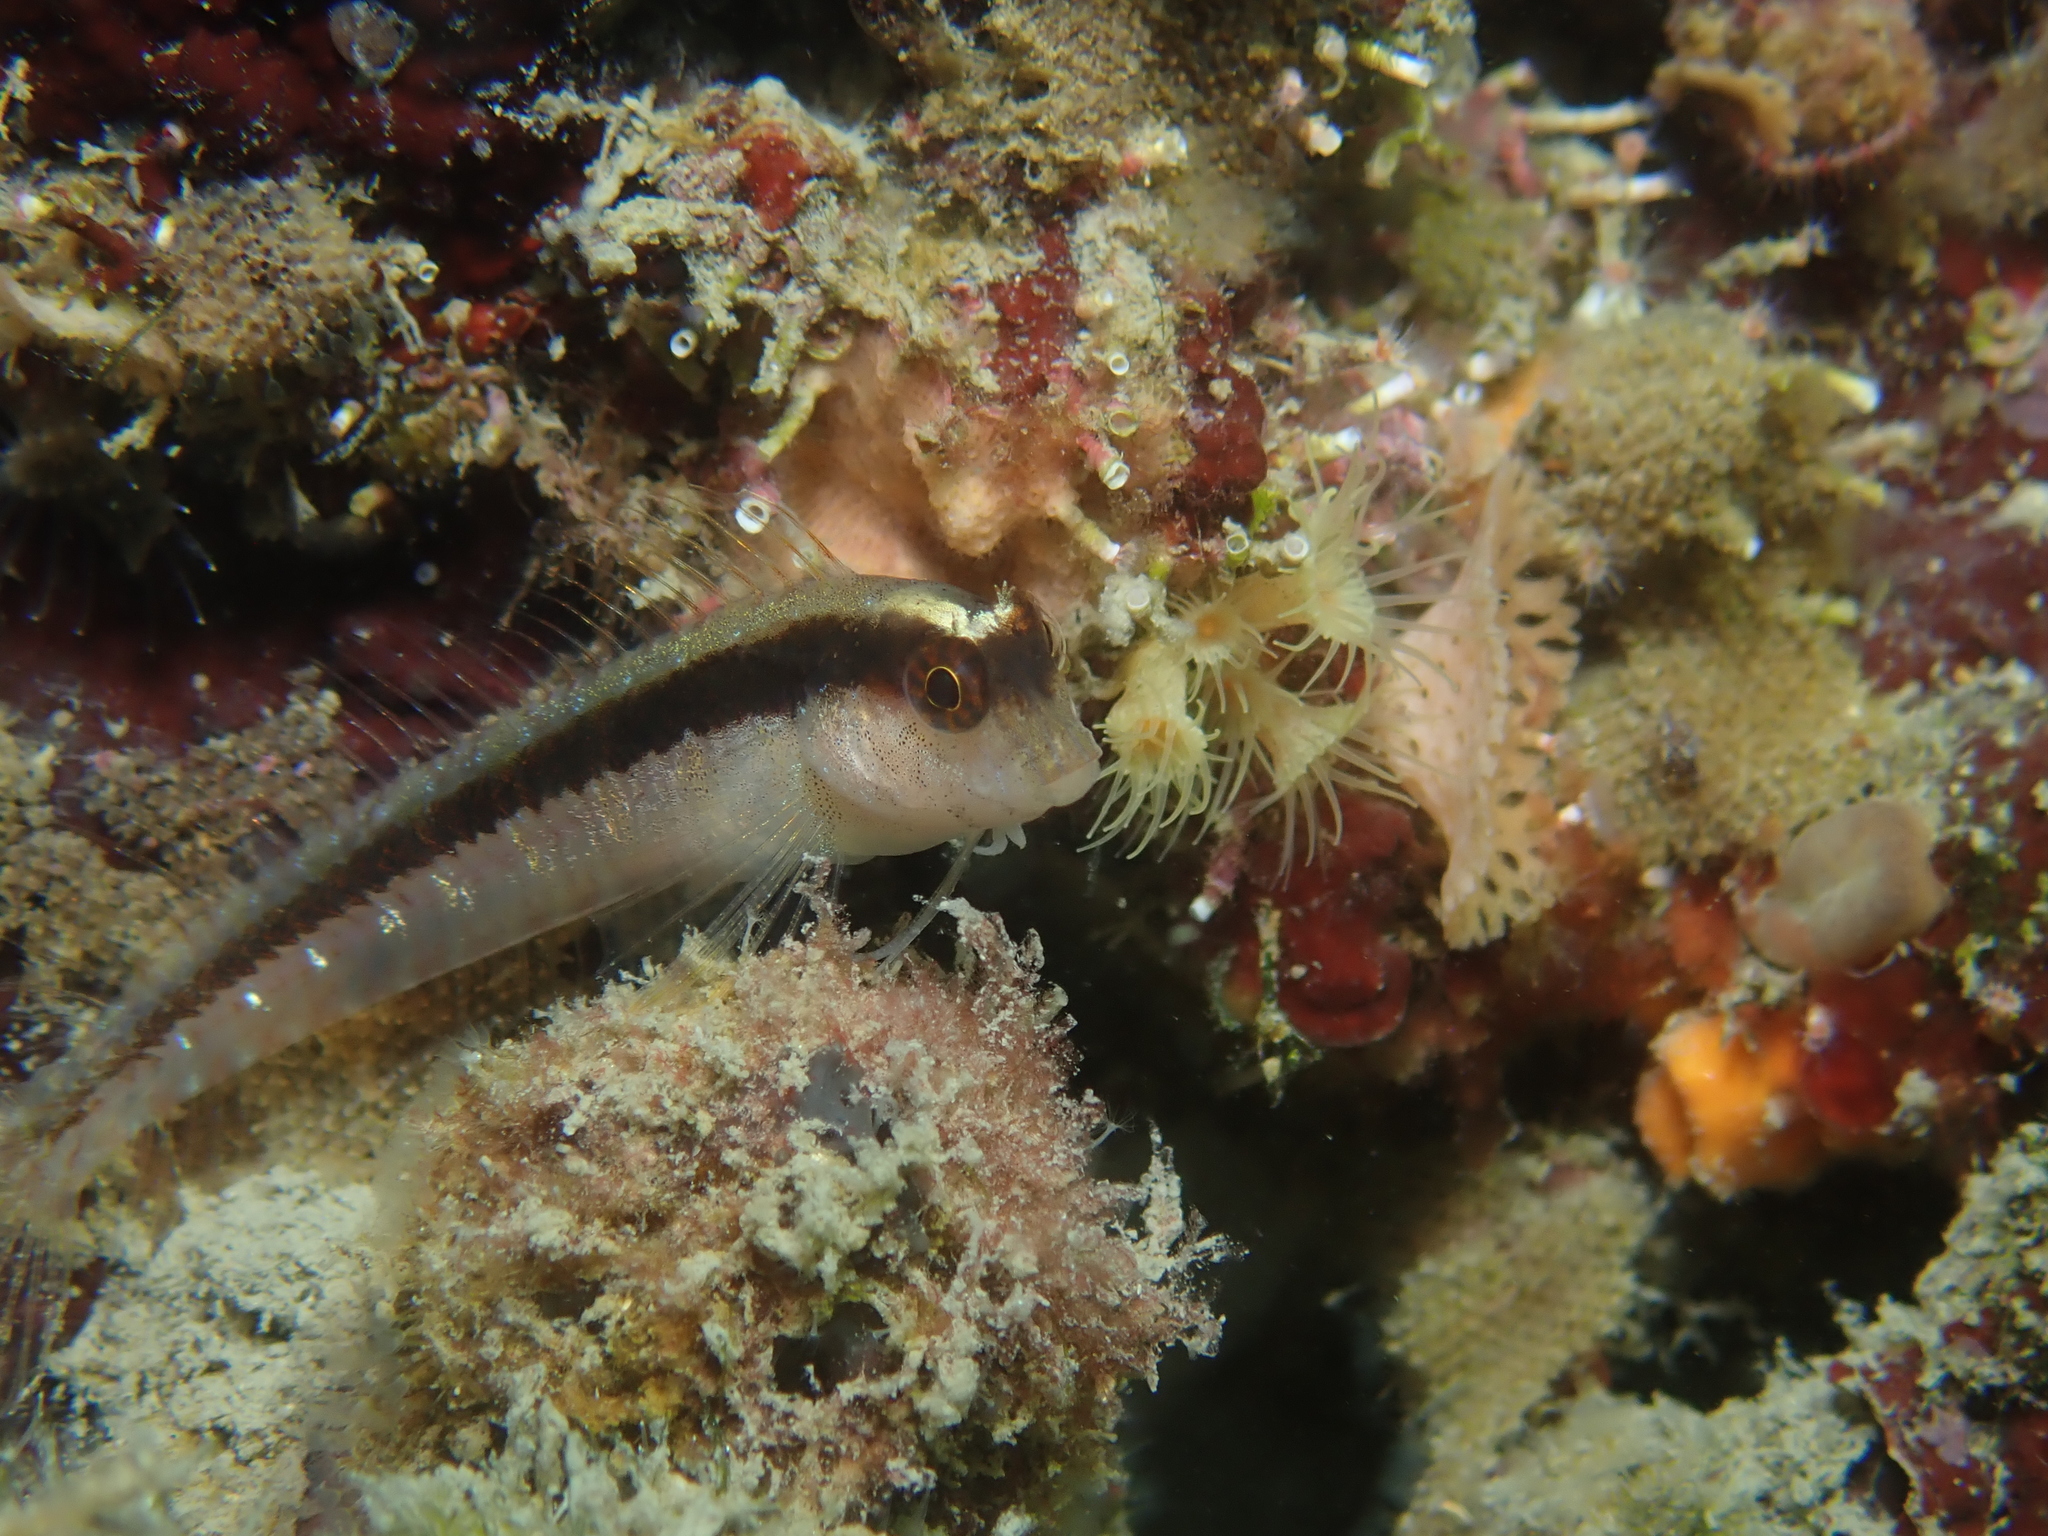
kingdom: Animalia
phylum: Chordata
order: Perciformes
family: Blenniidae
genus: Parablennius
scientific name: Parablennius rouxi
